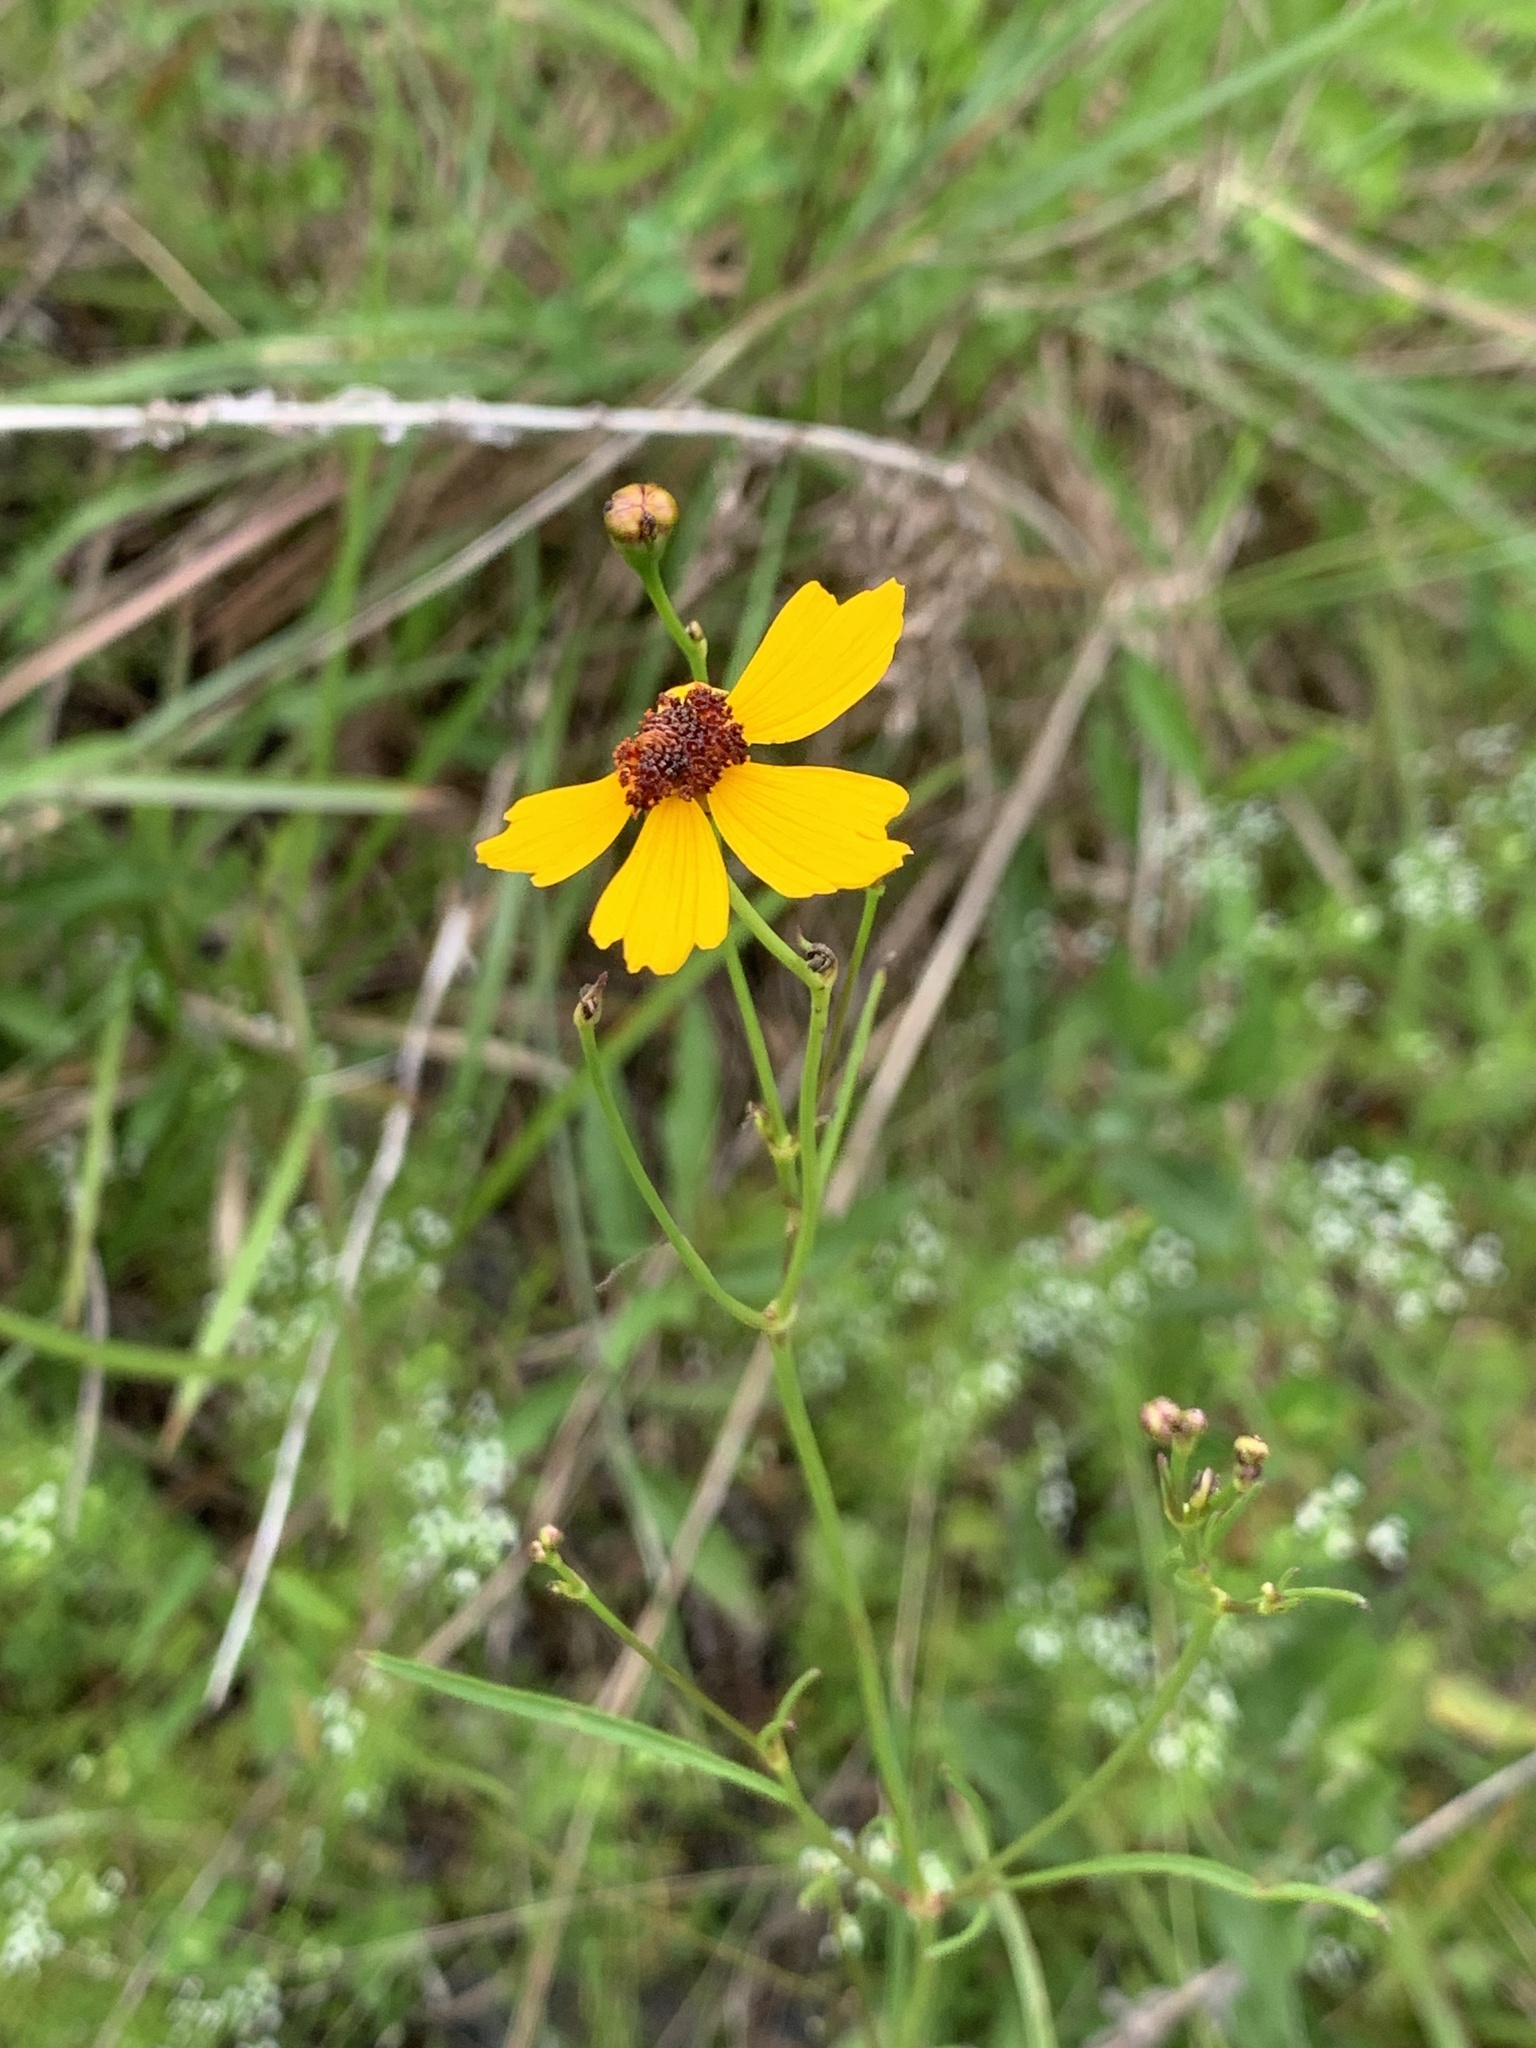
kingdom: Plantae
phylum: Tracheophyta
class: Magnoliopsida
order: Asterales
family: Asteraceae
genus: Coreopsis
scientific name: Coreopsis leavenworthii
